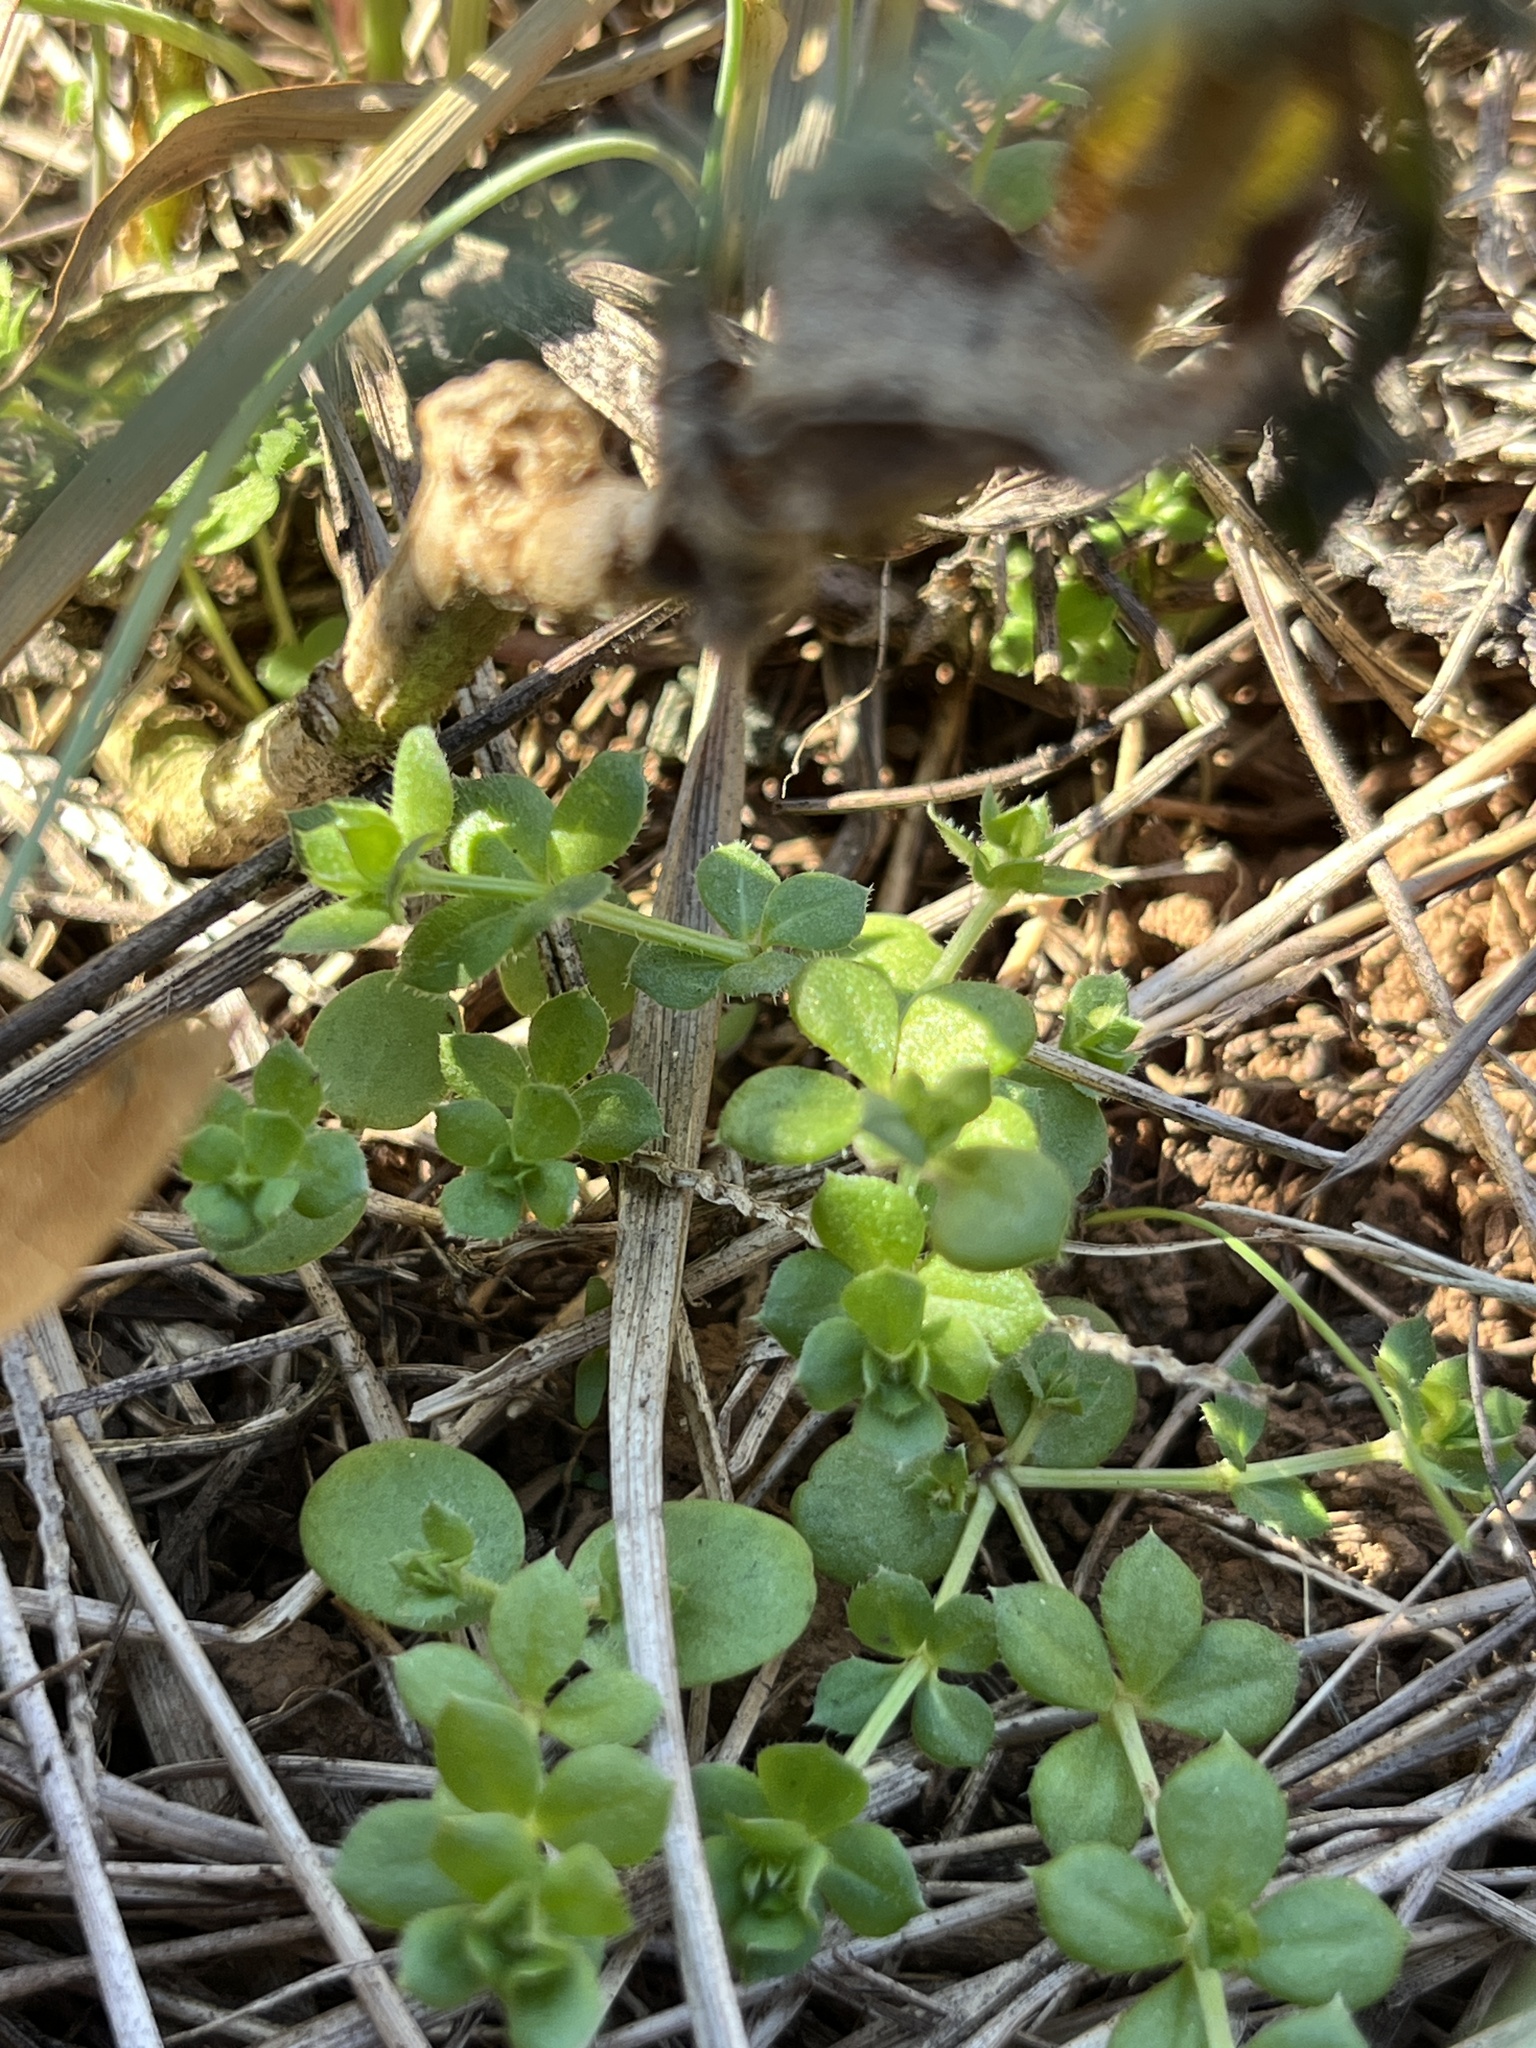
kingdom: Plantae
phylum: Tracheophyta
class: Magnoliopsida
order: Gentianales
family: Rubiaceae
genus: Sherardia
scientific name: Sherardia arvensis
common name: Field madder
